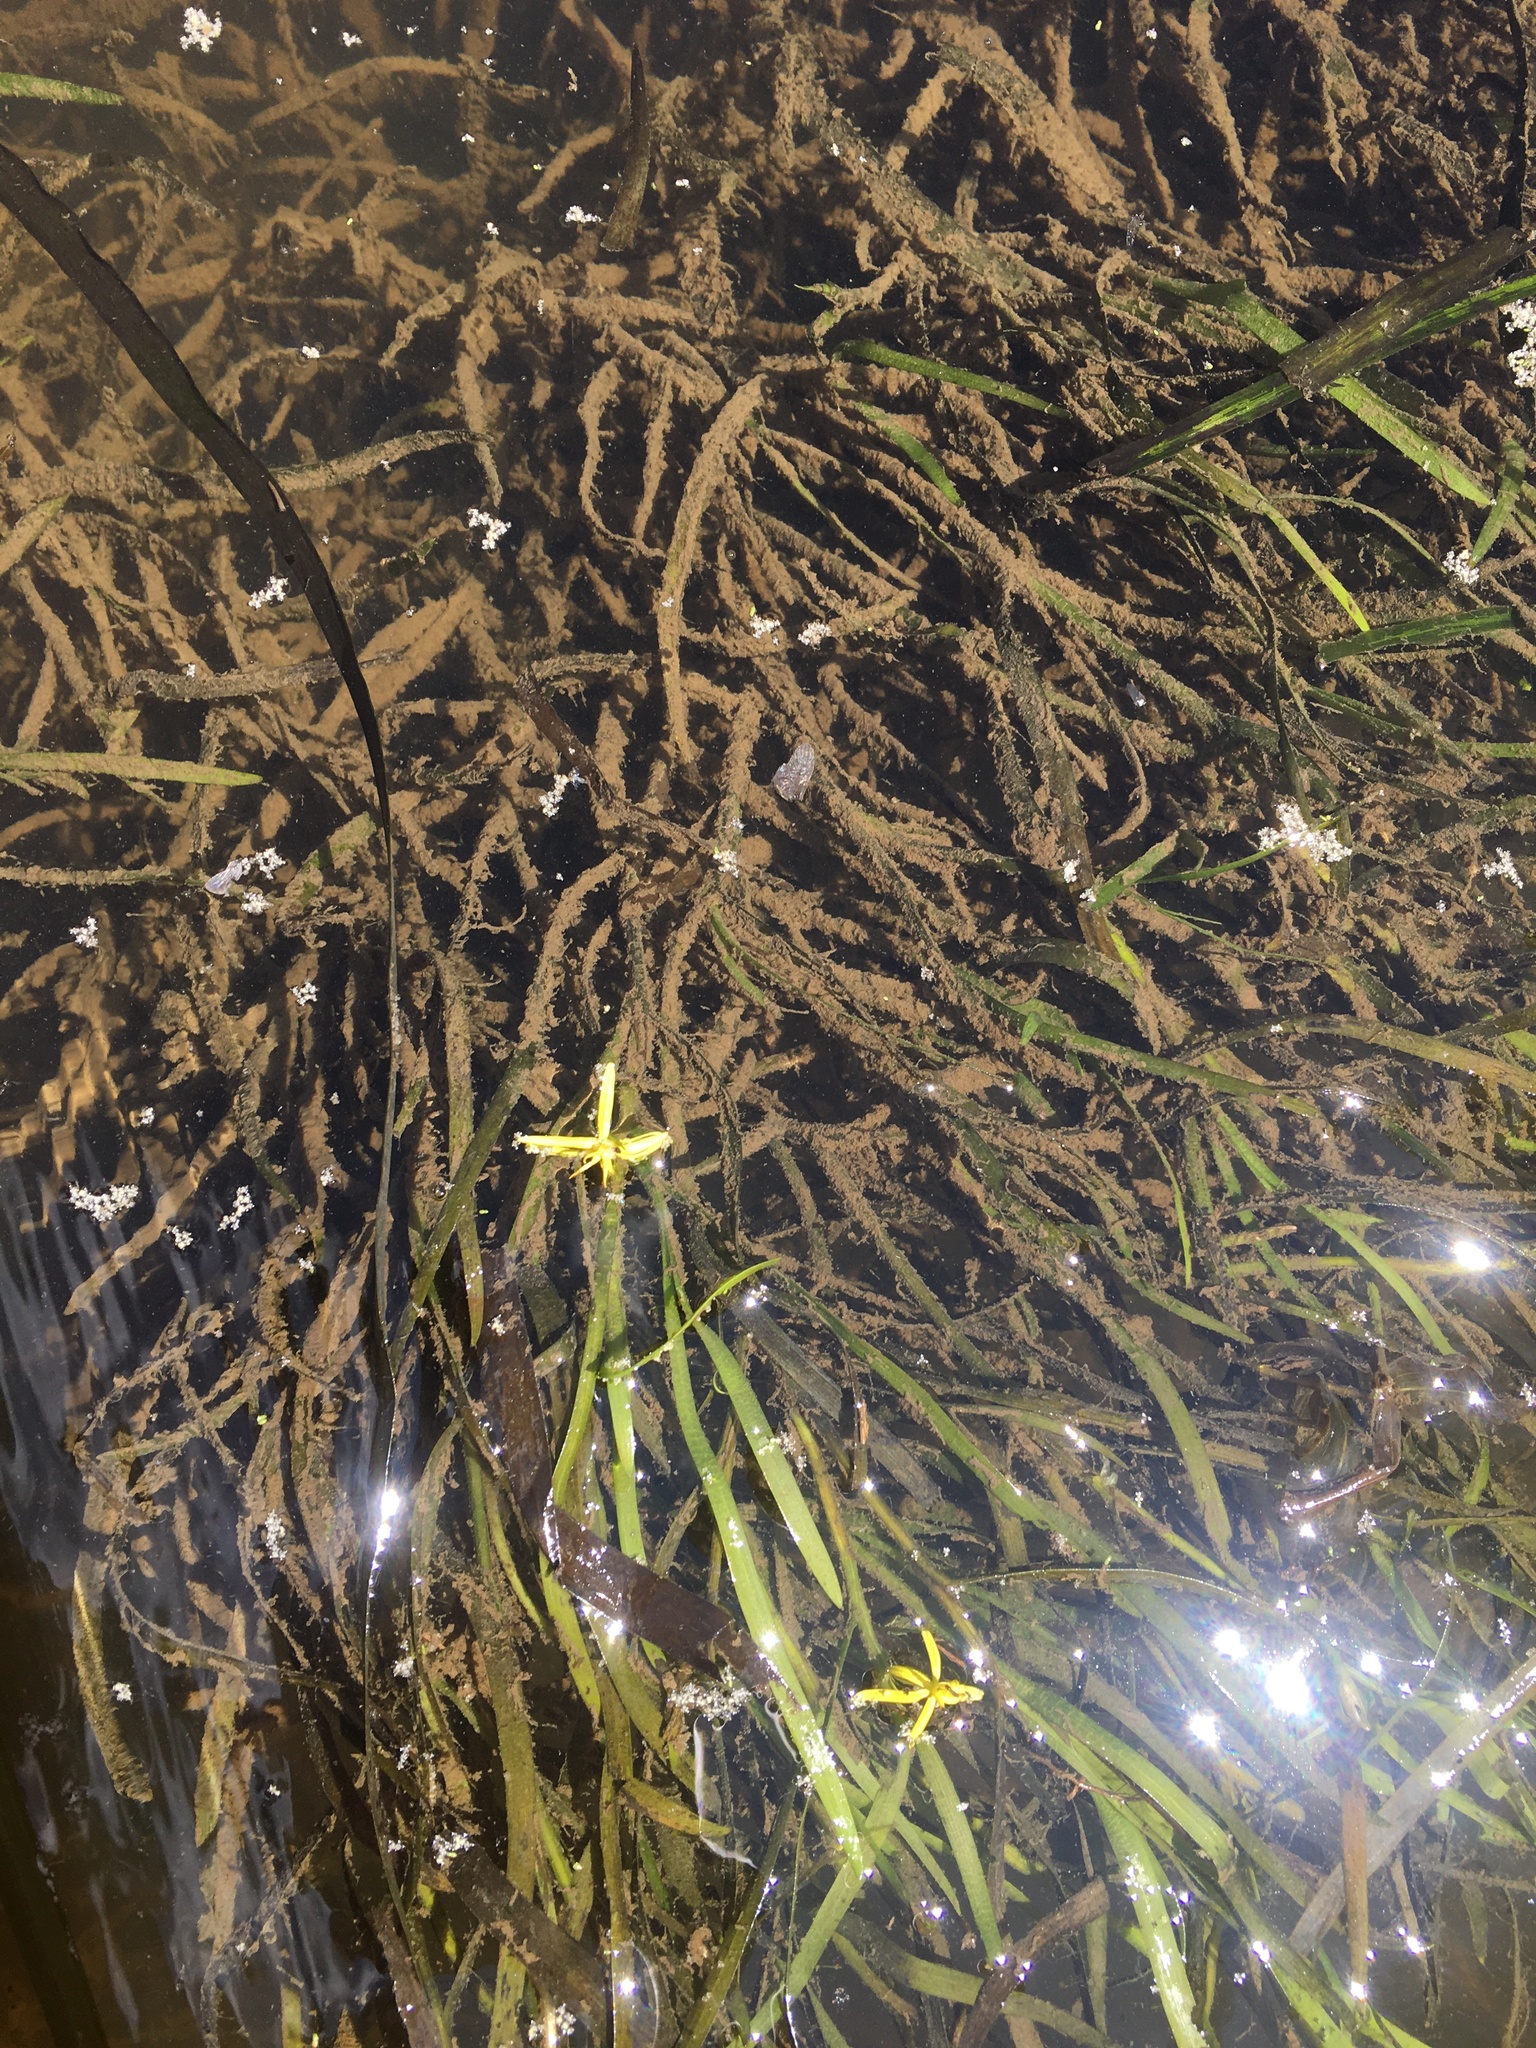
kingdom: Plantae
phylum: Tracheophyta
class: Liliopsida
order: Commelinales
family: Pontederiaceae
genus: Heteranthera
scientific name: Heteranthera dubia
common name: Grass-leaved mud plantain
